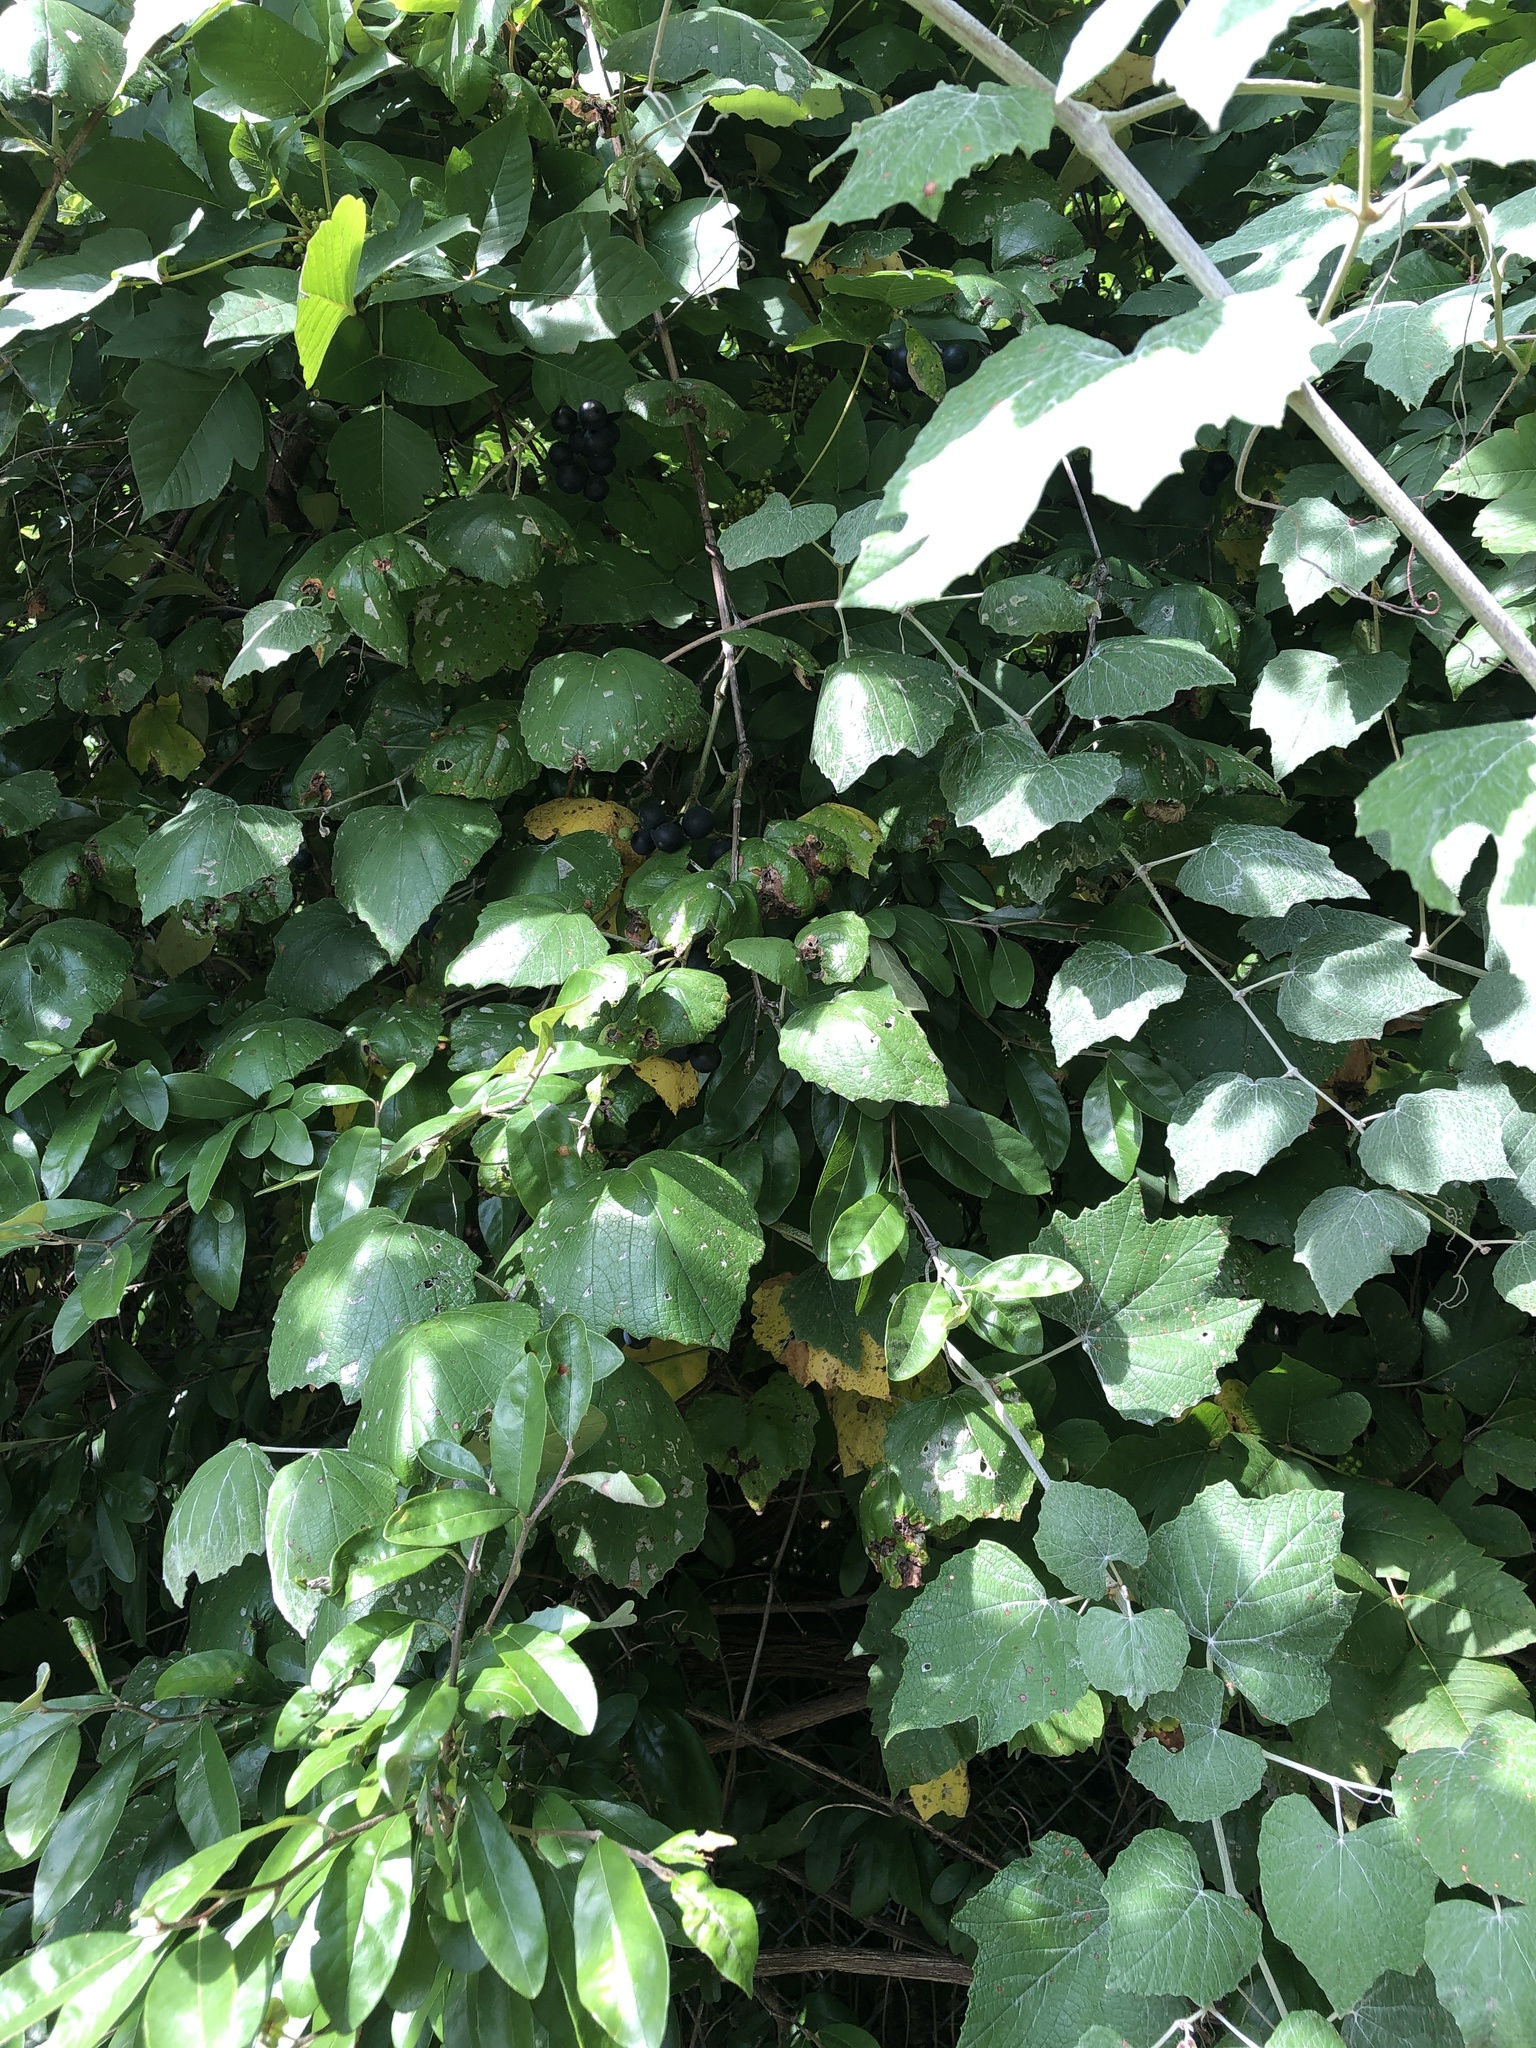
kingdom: Plantae
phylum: Tracheophyta
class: Magnoliopsida
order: Vitales
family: Vitaceae
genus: Vitis
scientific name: Vitis mustangensis
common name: Mustang grape
